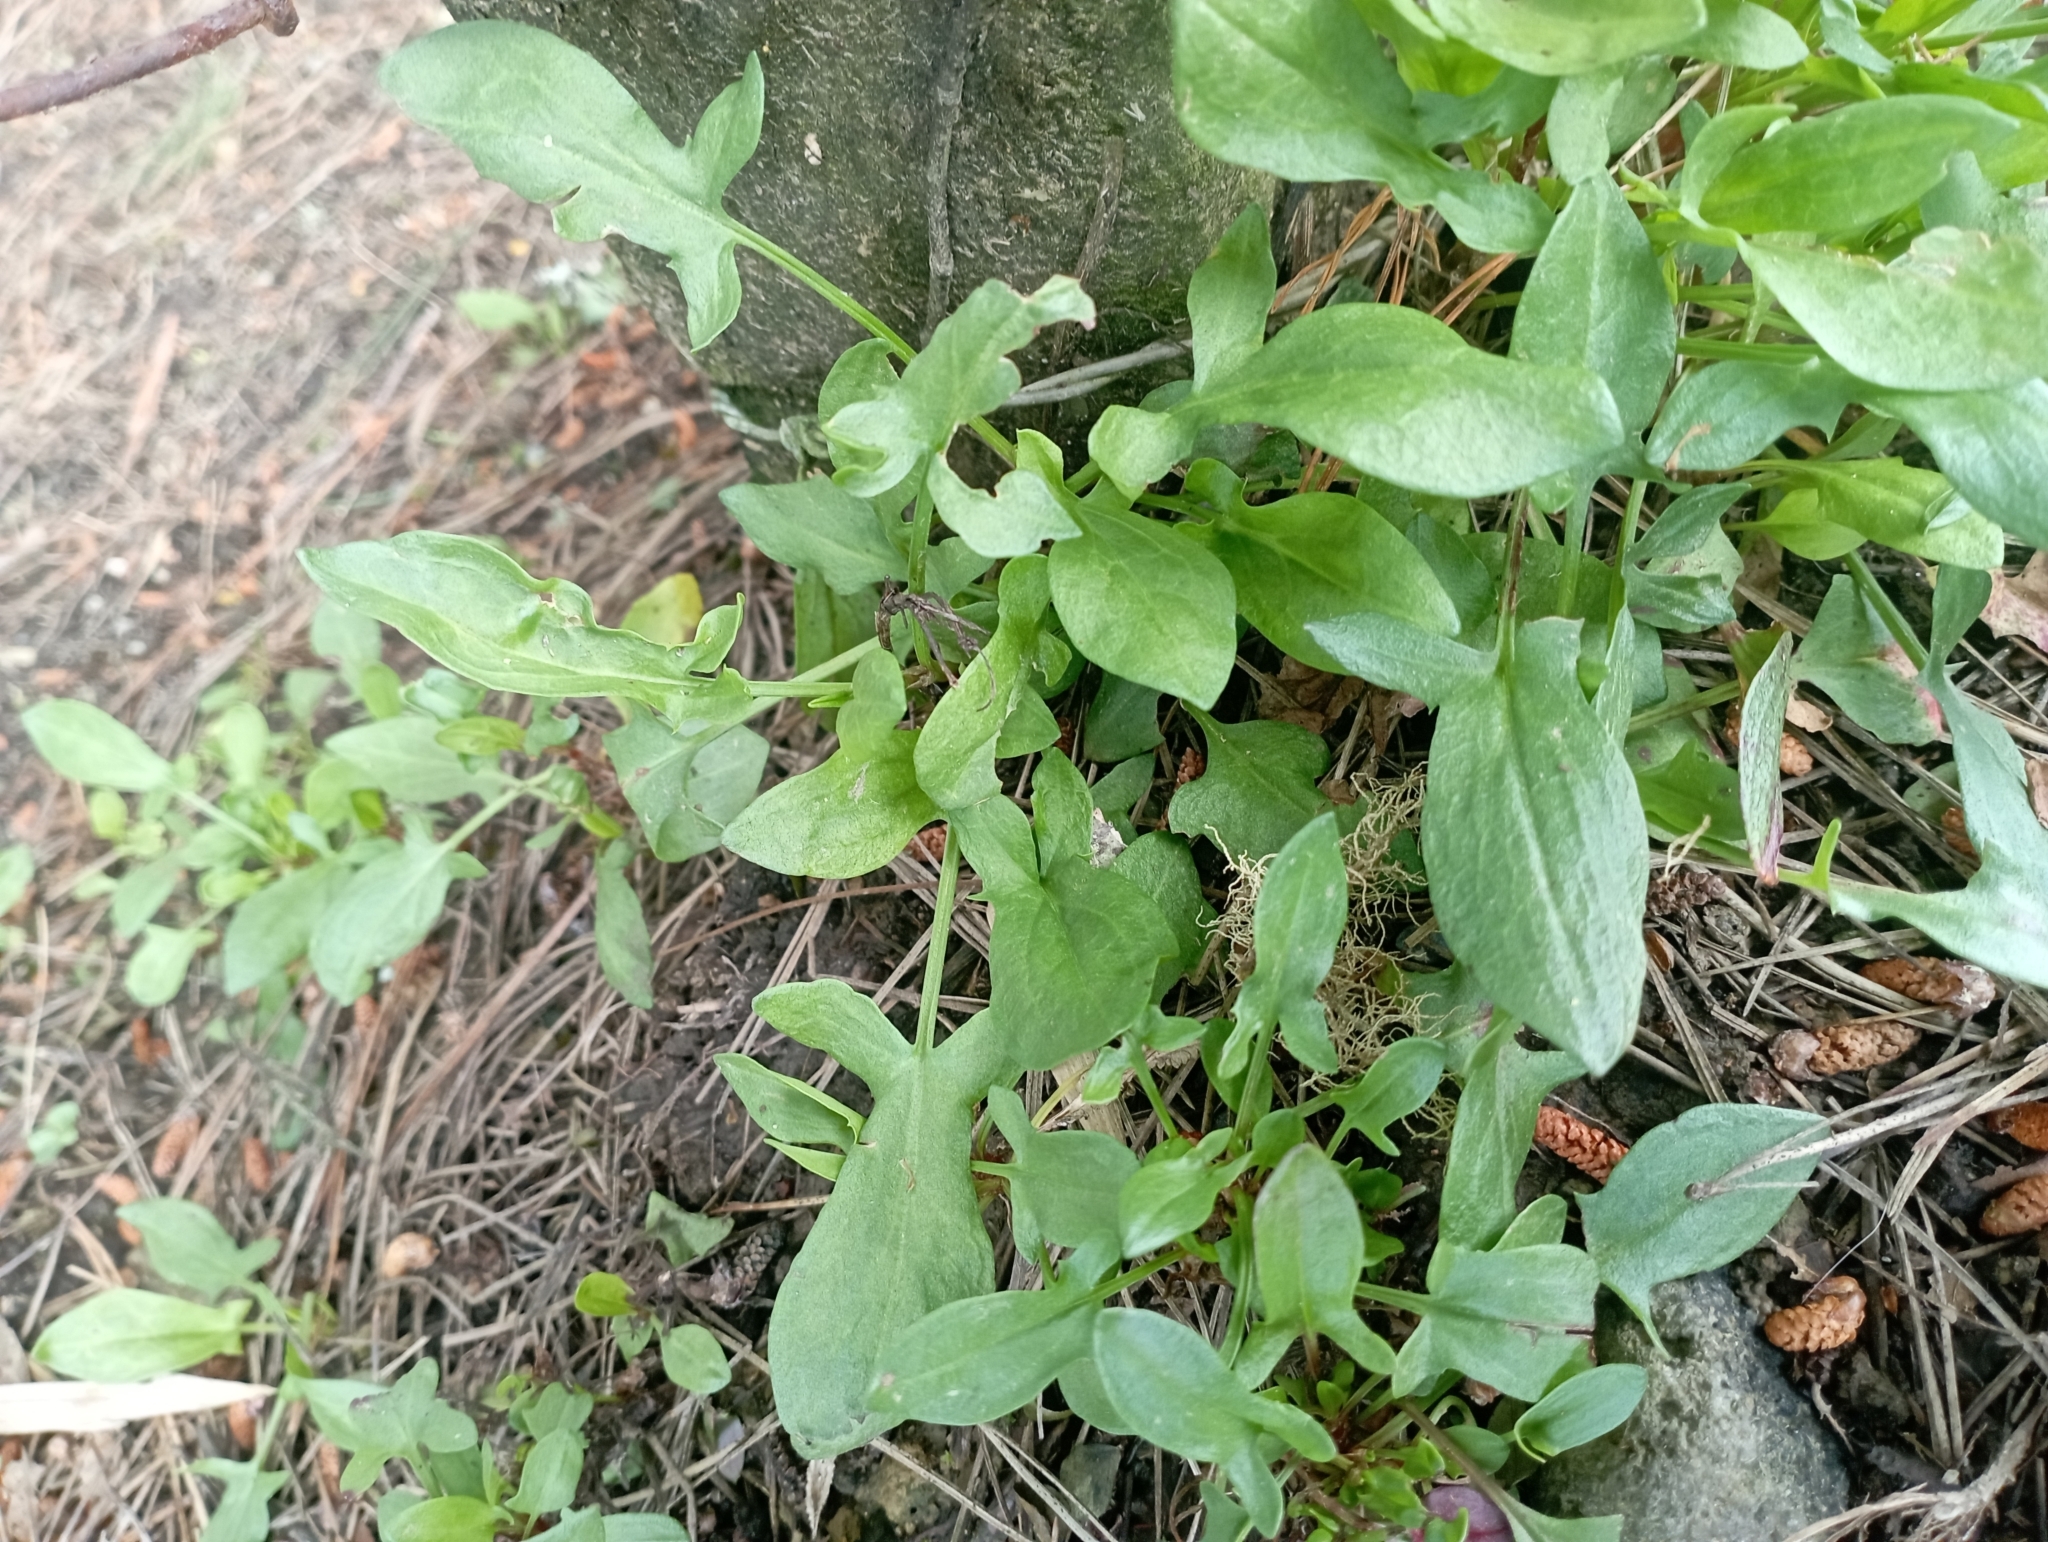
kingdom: Plantae
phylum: Tracheophyta
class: Magnoliopsida
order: Caryophyllales
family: Polygonaceae
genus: Rumex
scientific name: Rumex acetosella
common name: Common sheep sorrel
